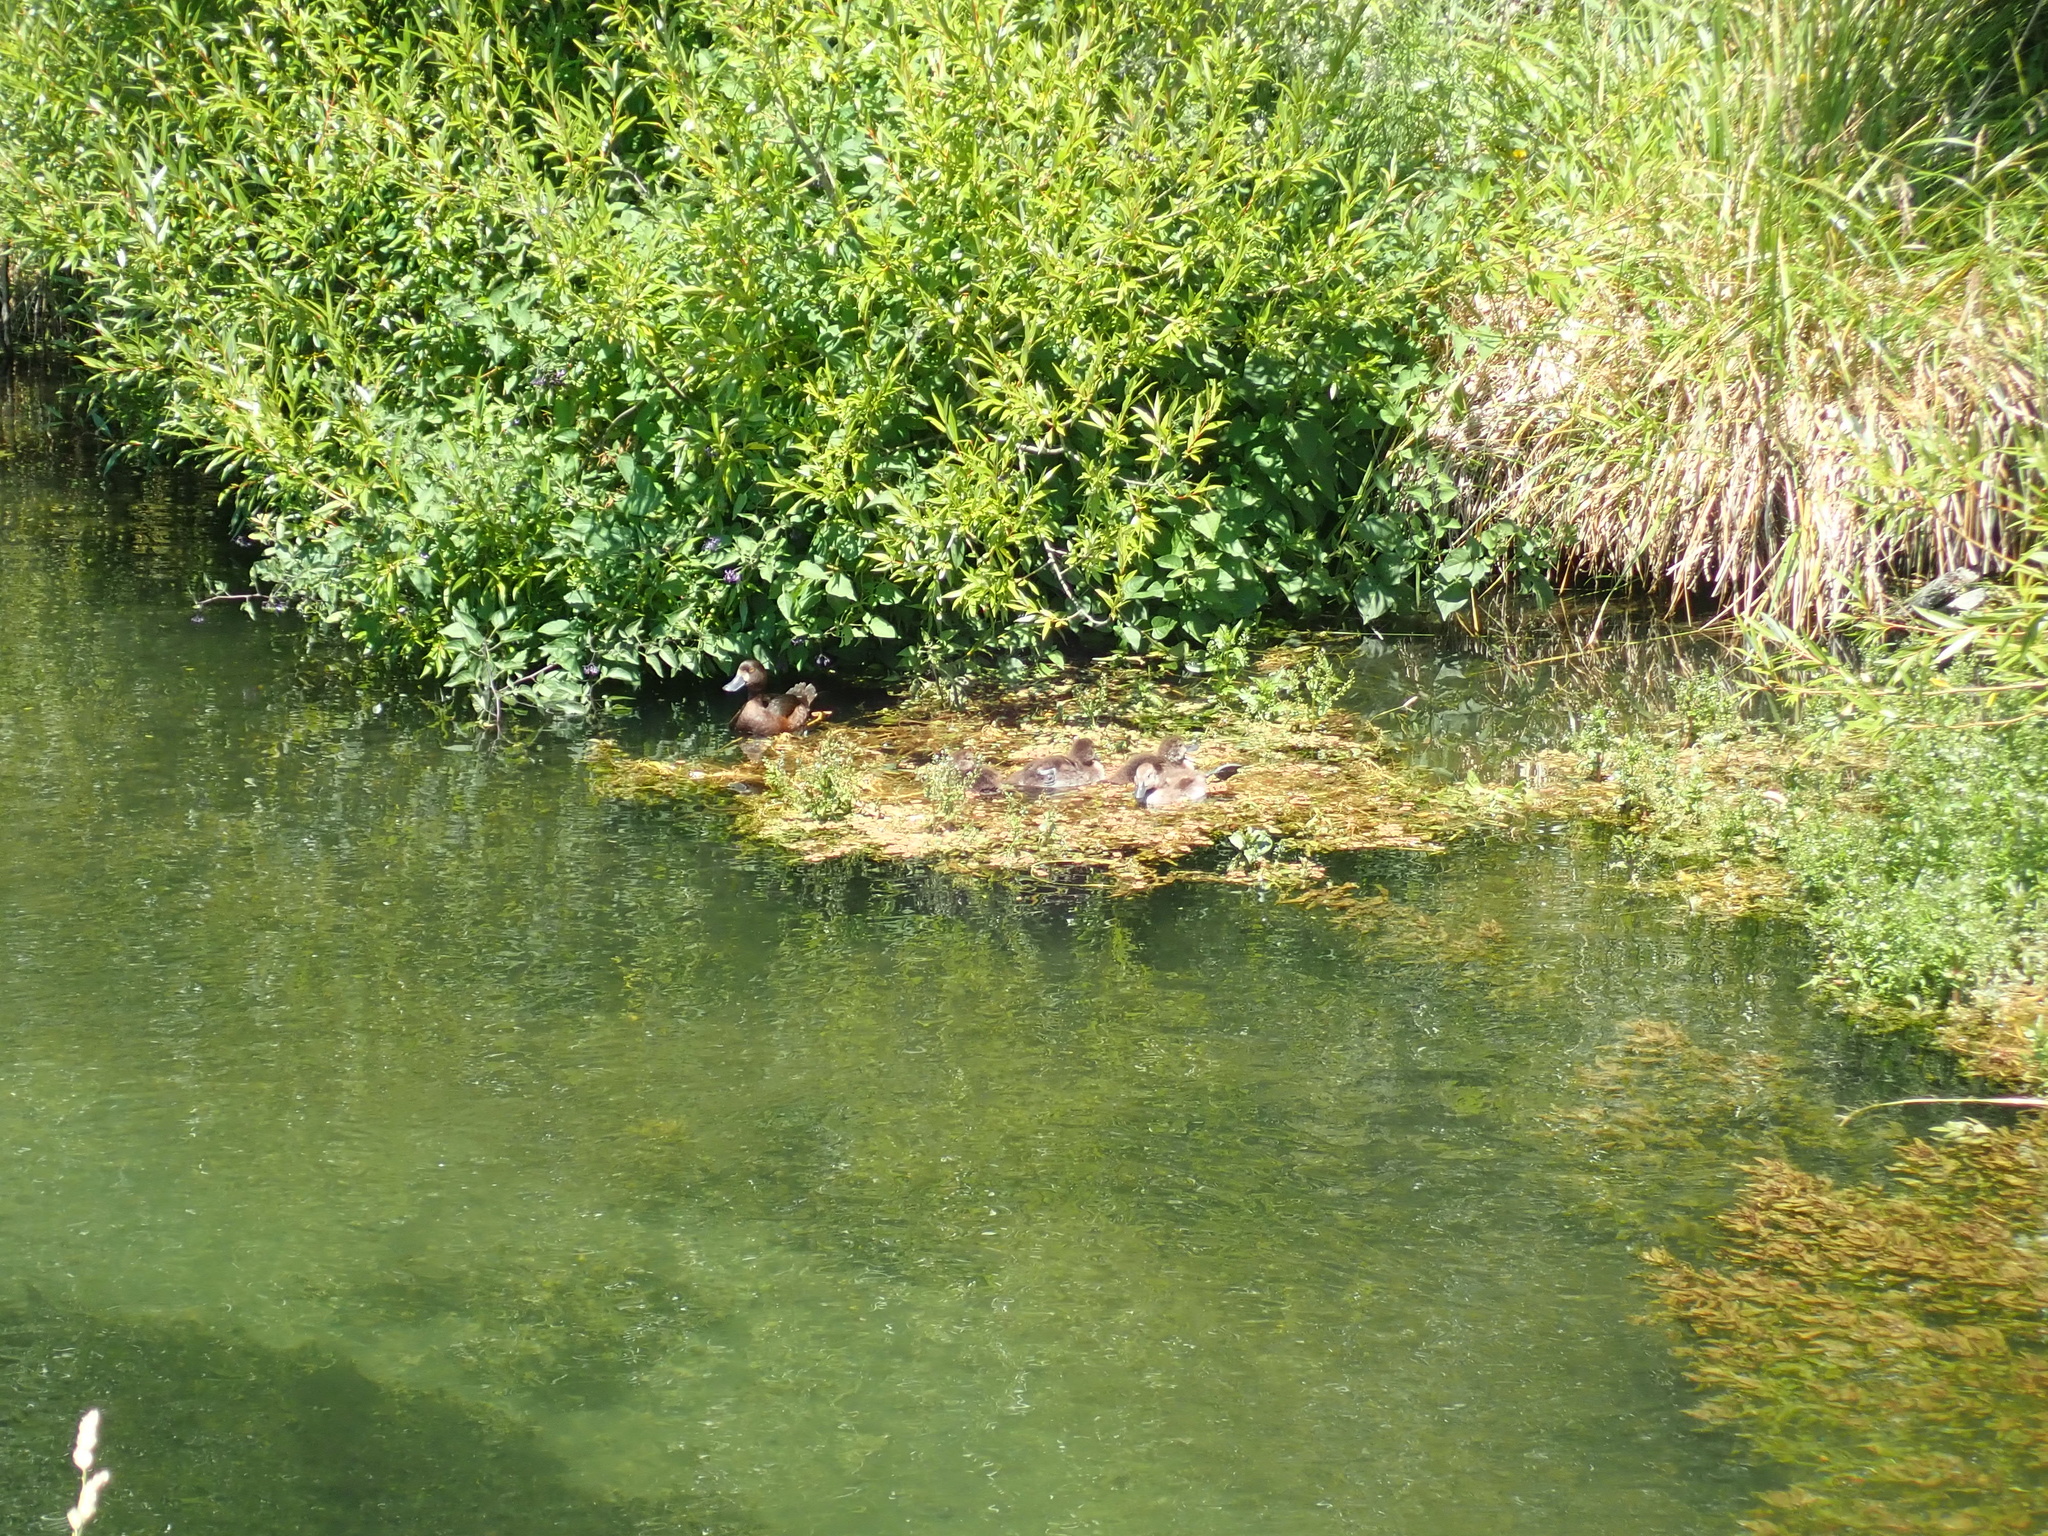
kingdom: Animalia
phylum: Chordata
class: Aves
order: Anseriformes
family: Anatidae
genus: Aythya
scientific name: Aythya novaeseelandiae
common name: New zealand scaup
